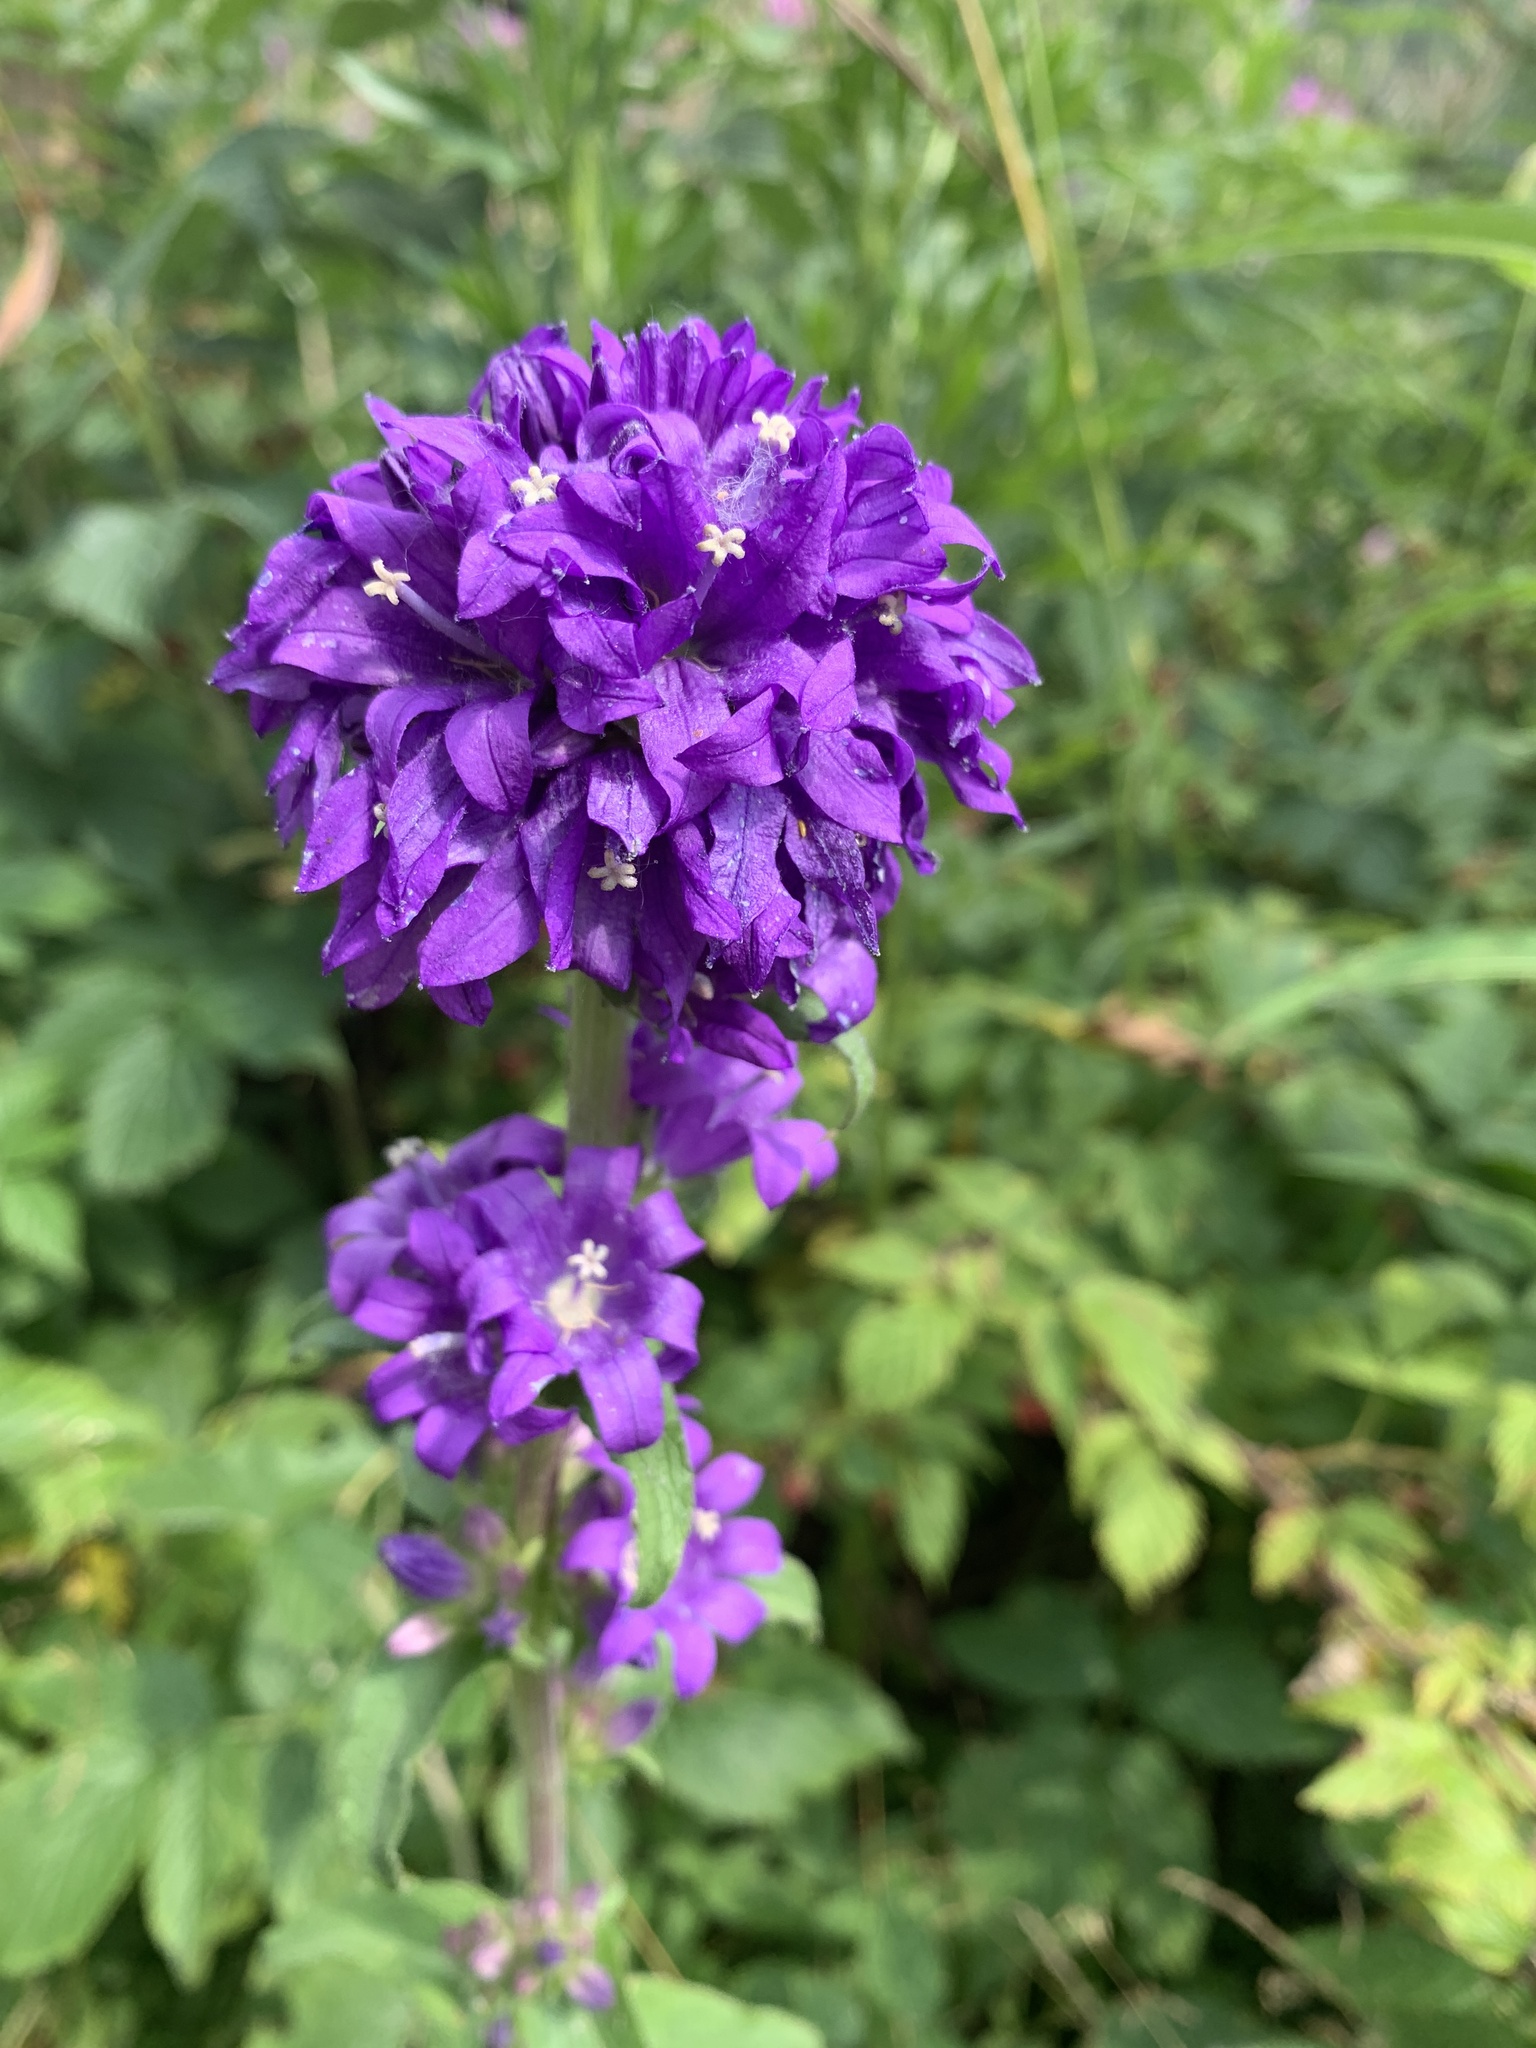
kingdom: Plantae
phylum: Tracheophyta
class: Magnoliopsida
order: Asterales
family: Campanulaceae
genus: Campanula
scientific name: Campanula glomerata
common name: Clustered bellflower
